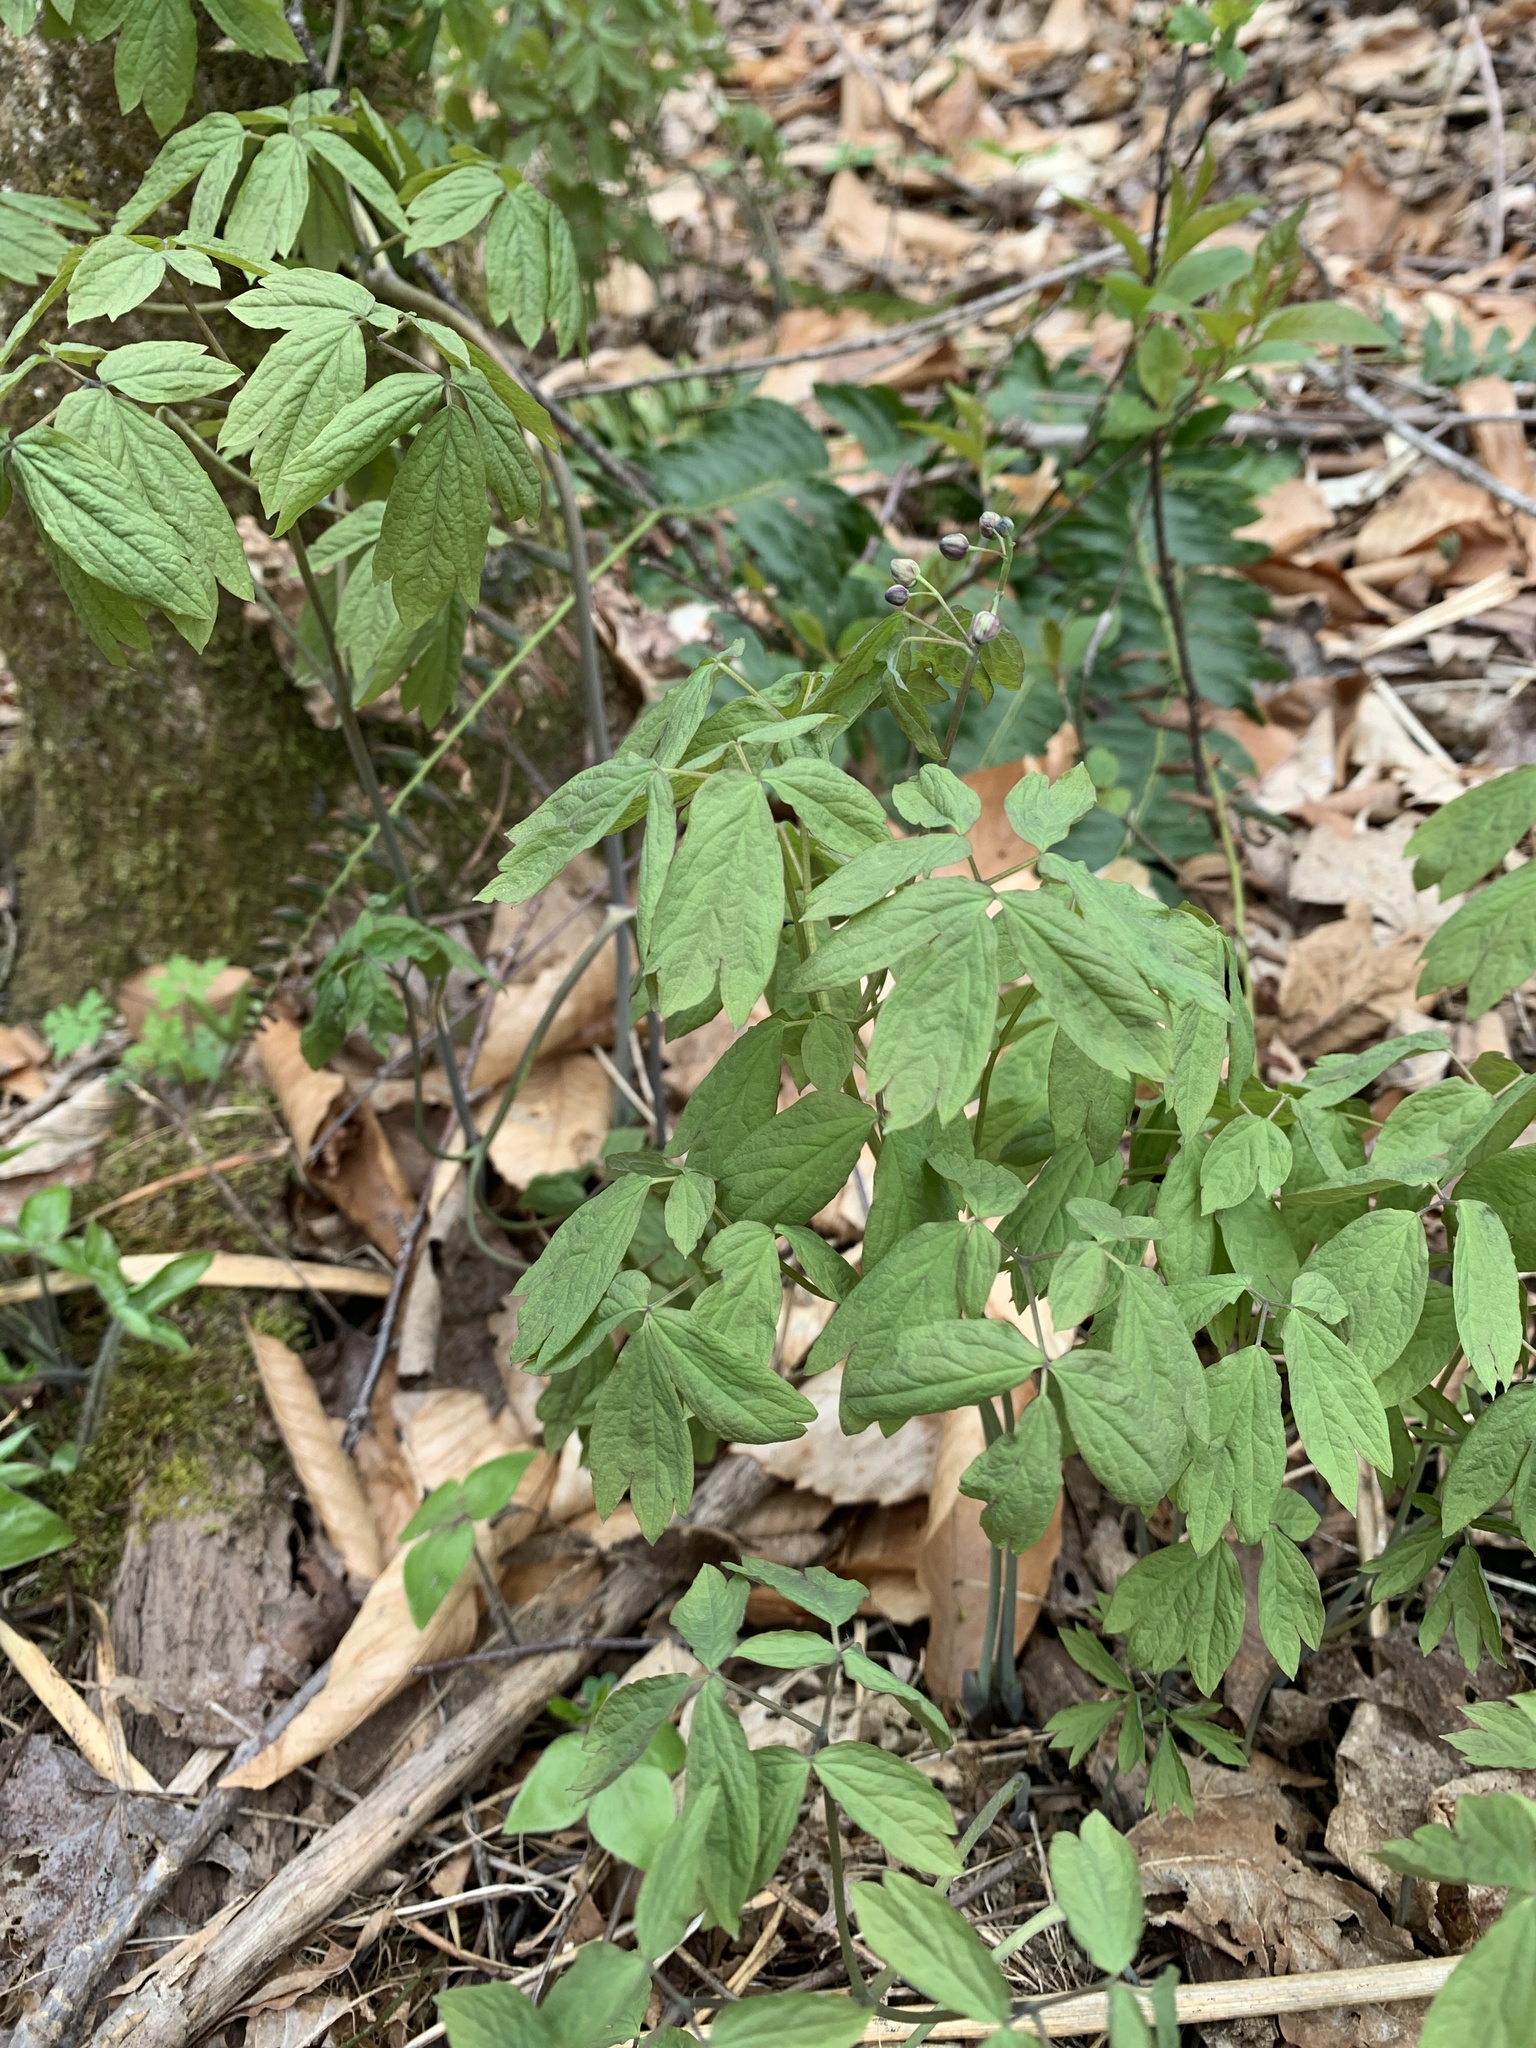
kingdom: Plantae
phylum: Tracheophyta
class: Magnoliopsida
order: Ranunculales
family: Berberidaceae
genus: Caulophyllum
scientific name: Caulophyllum thalictroides
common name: Blue cohosh
